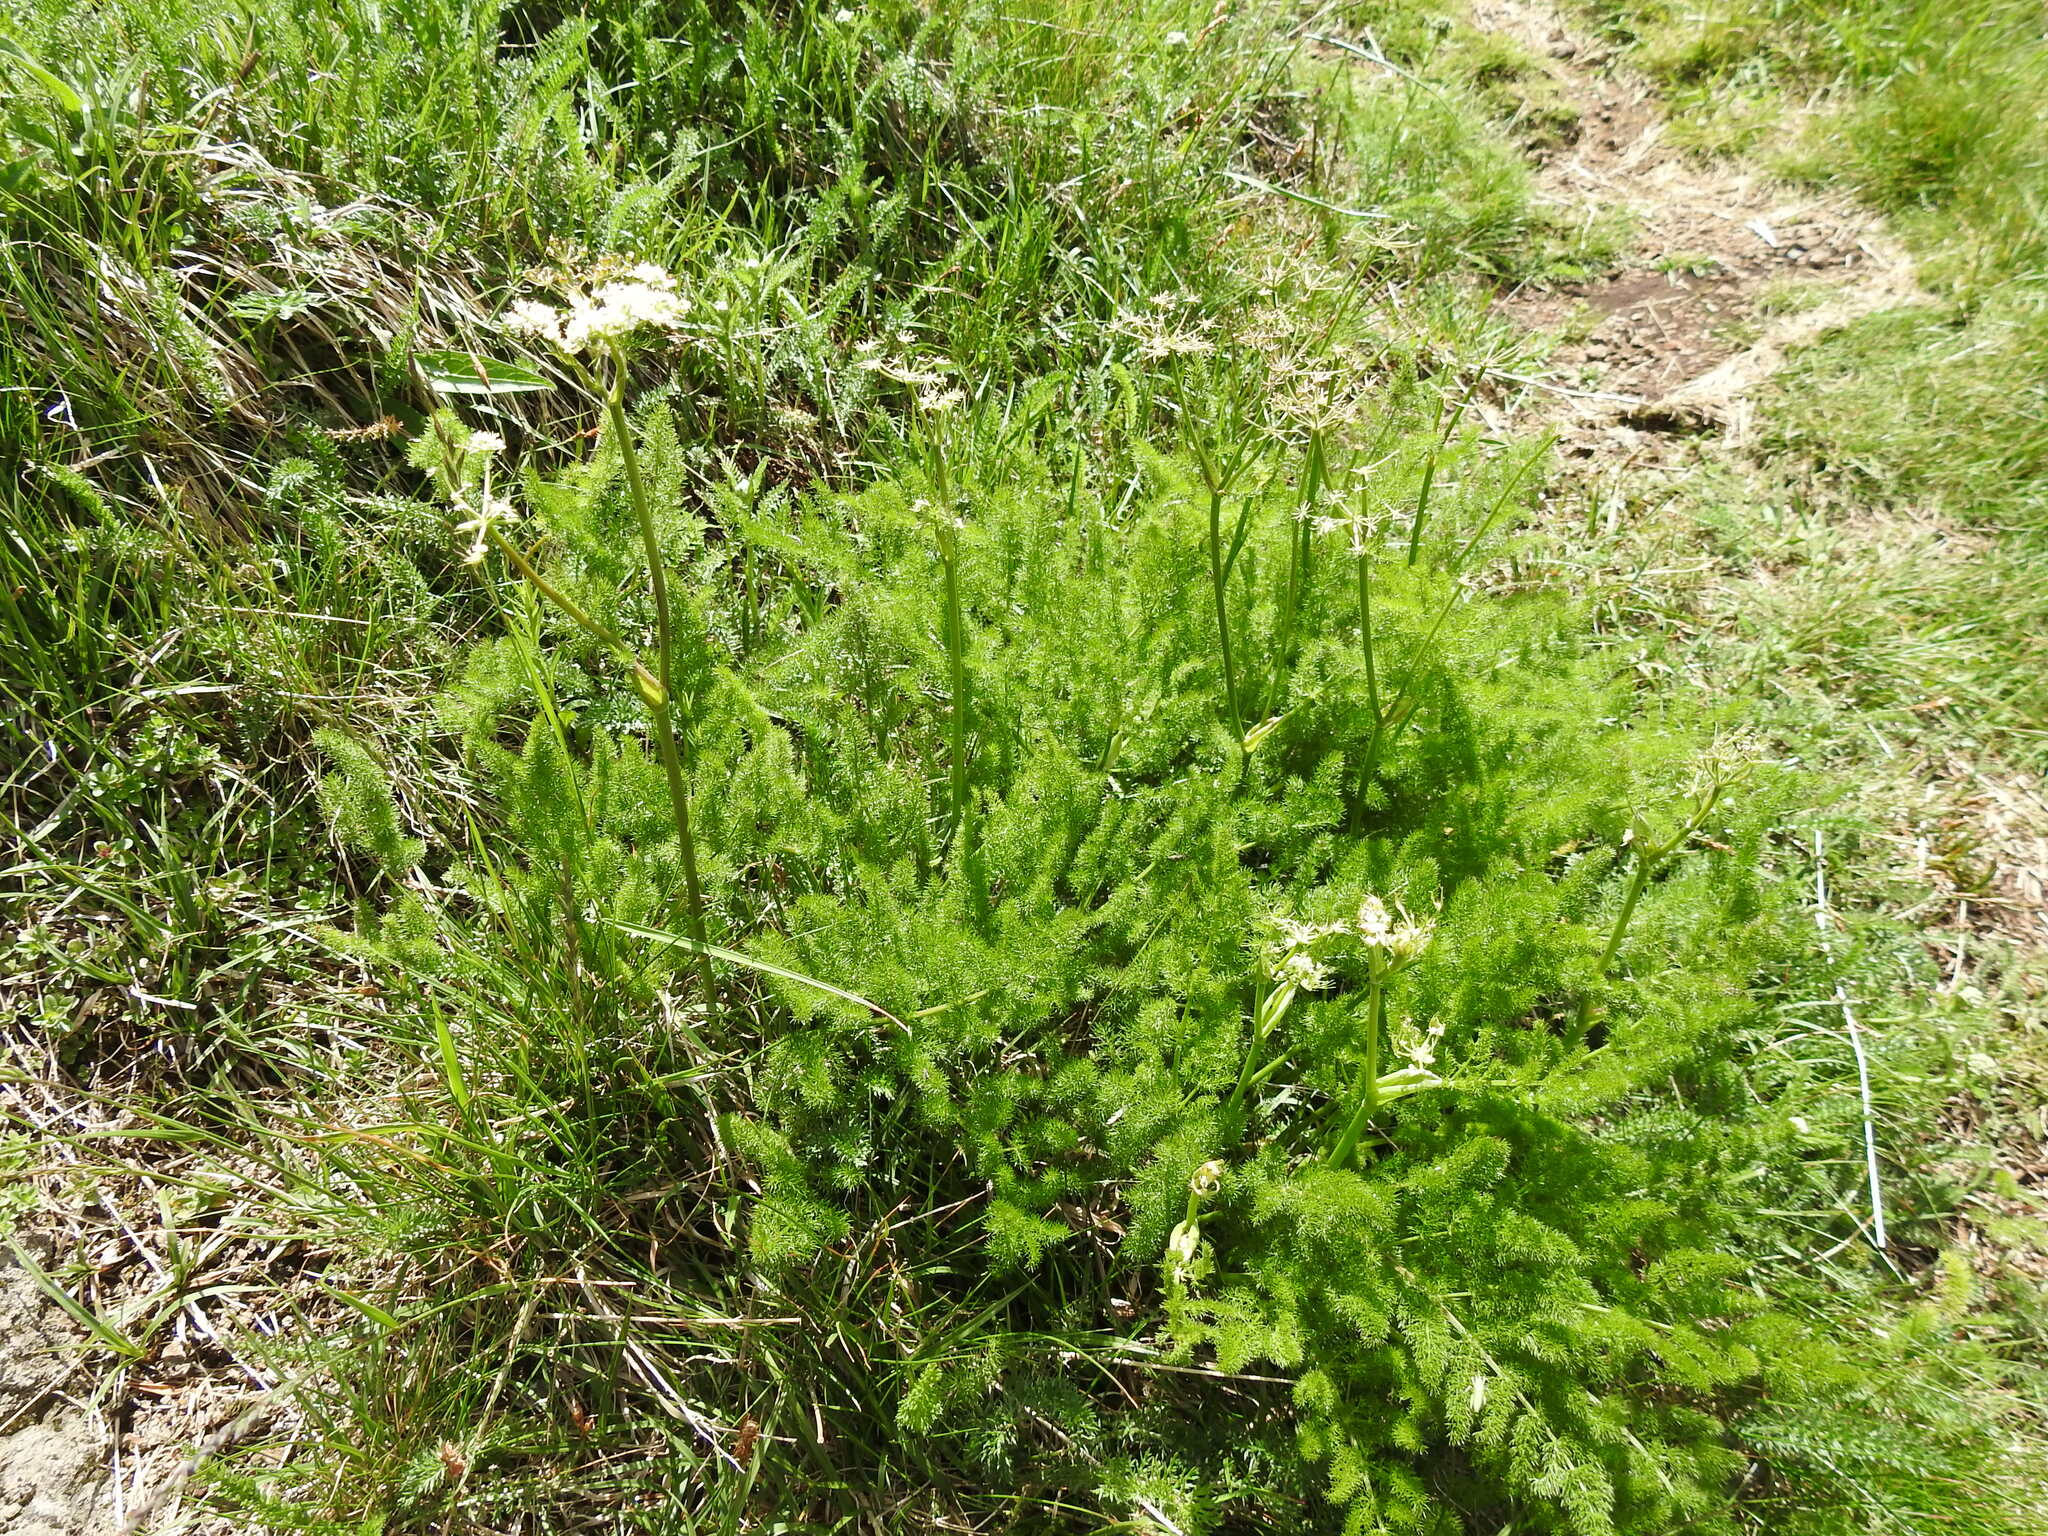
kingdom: Plantae
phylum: Tracheophyta
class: Magnoliopsida
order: Apiales
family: Apiaceae
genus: Meum
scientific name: Meum athamanticum
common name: Spignel
